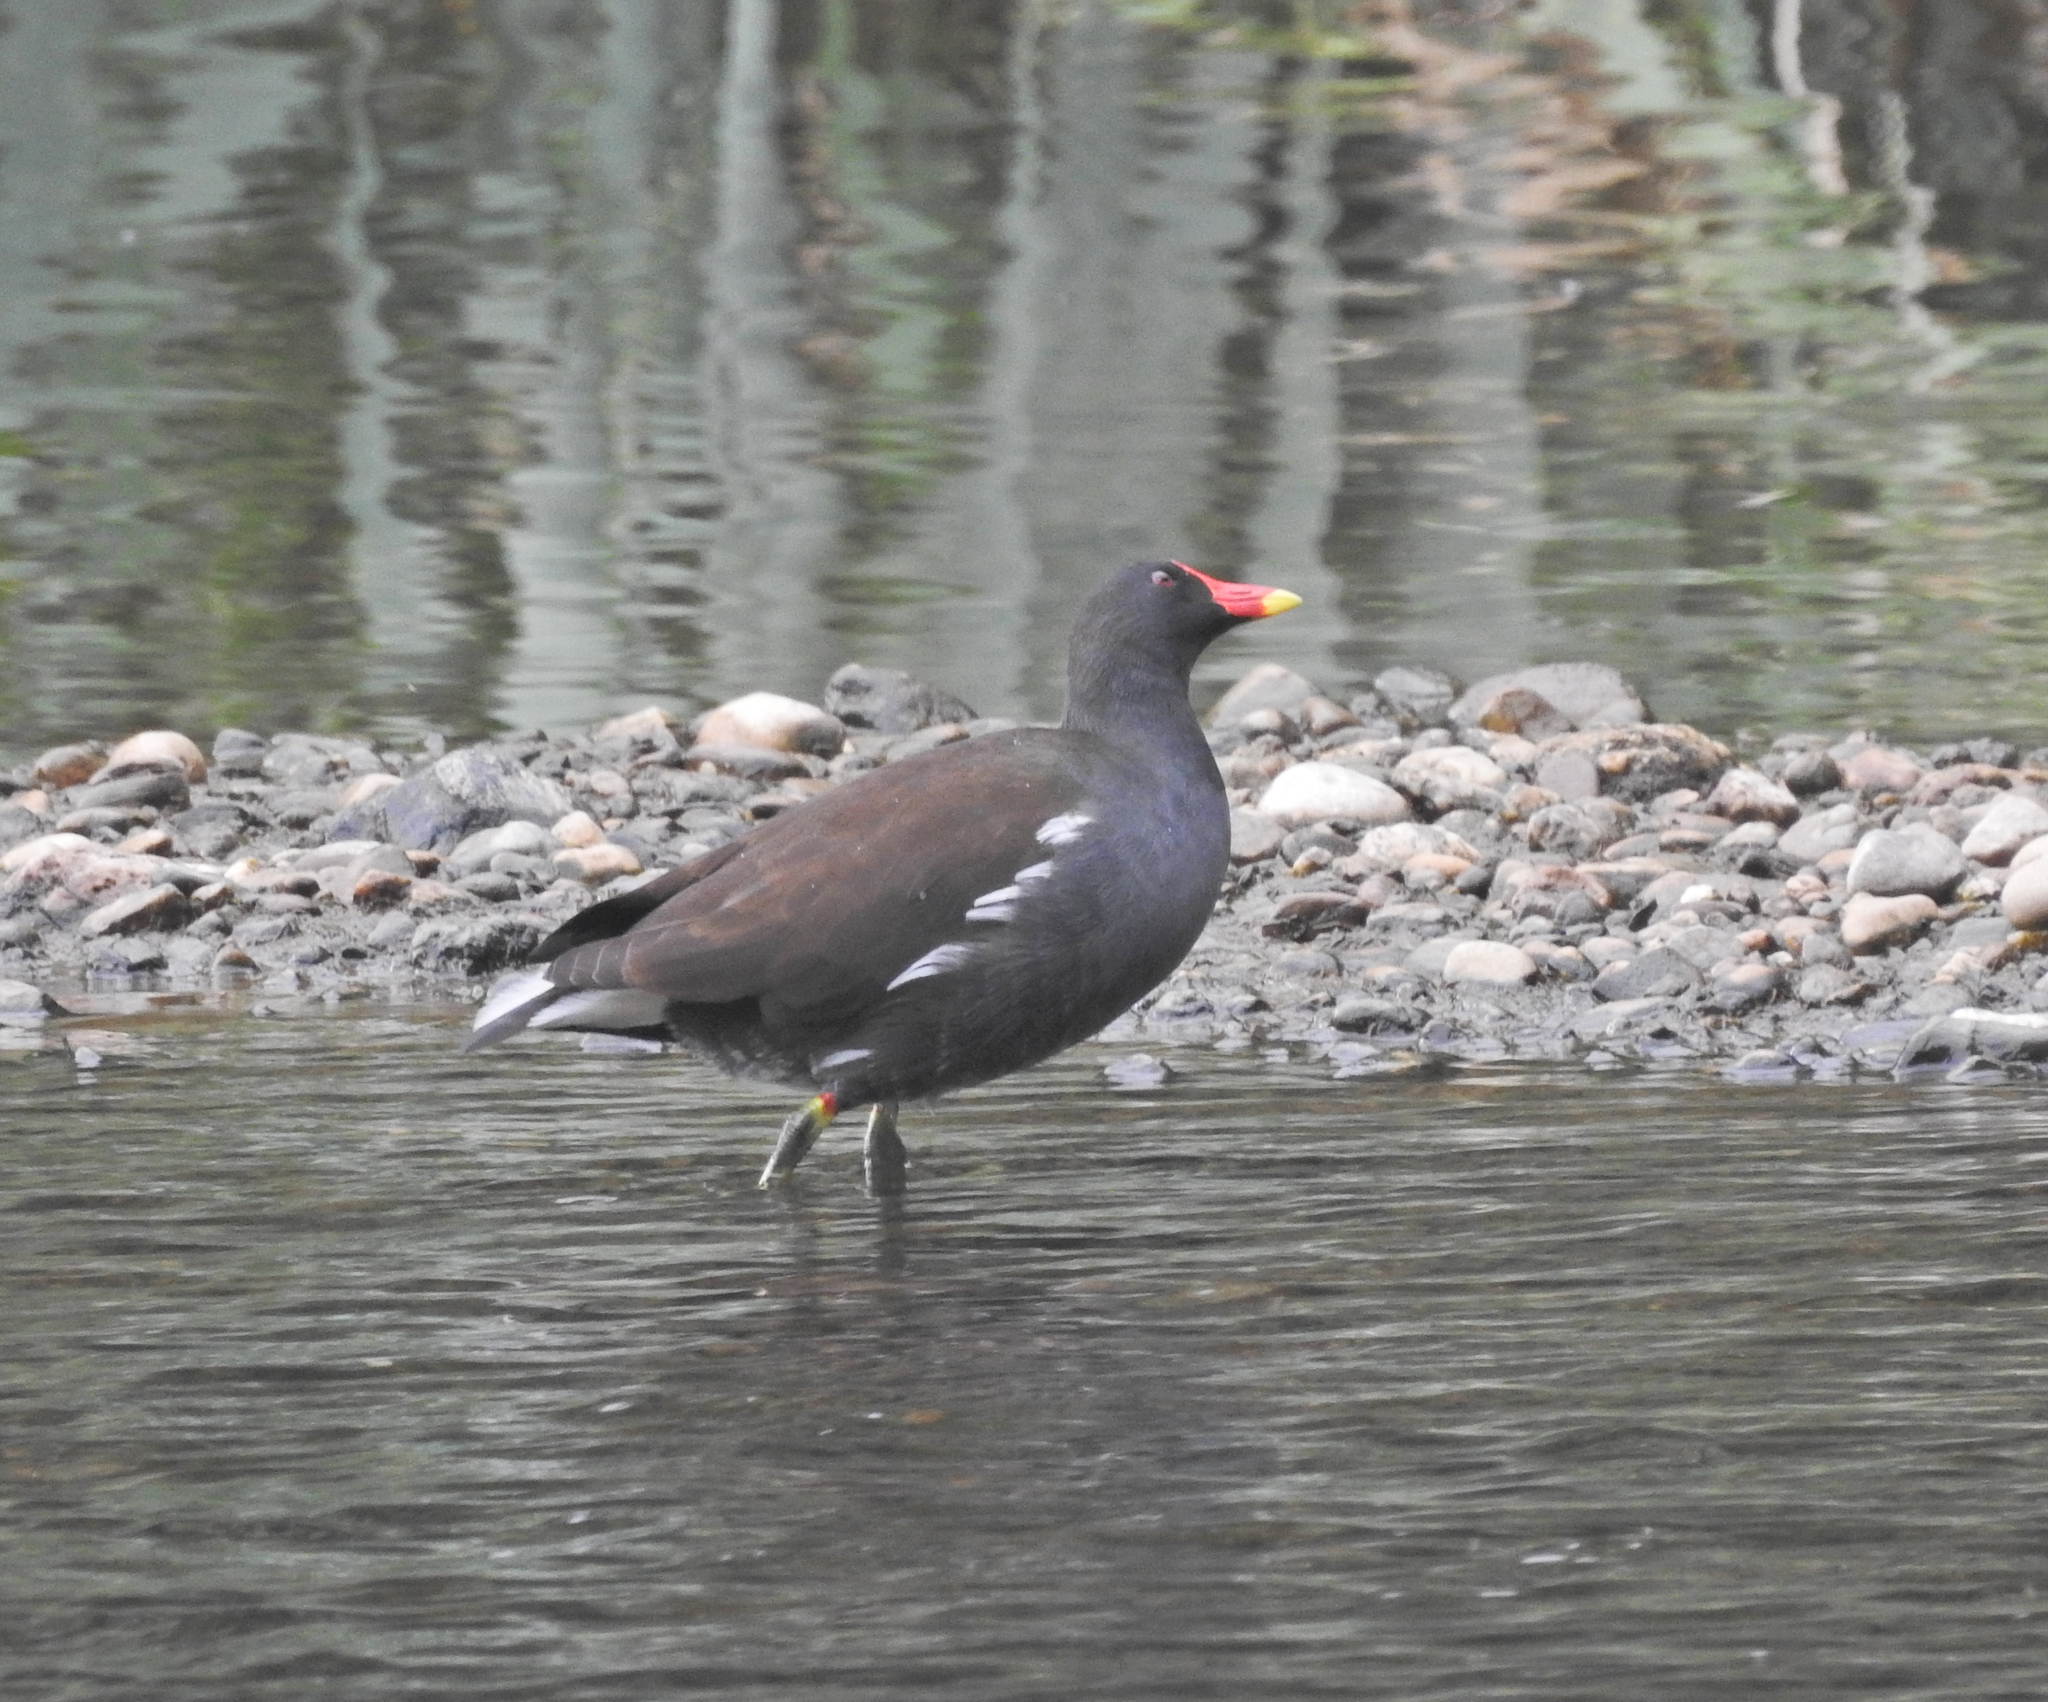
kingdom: Animalia
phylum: Chordata
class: Aves
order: Gruiformes
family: Rallidae
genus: Gallinula
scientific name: Gallinula chloropus
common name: Common moorhen
